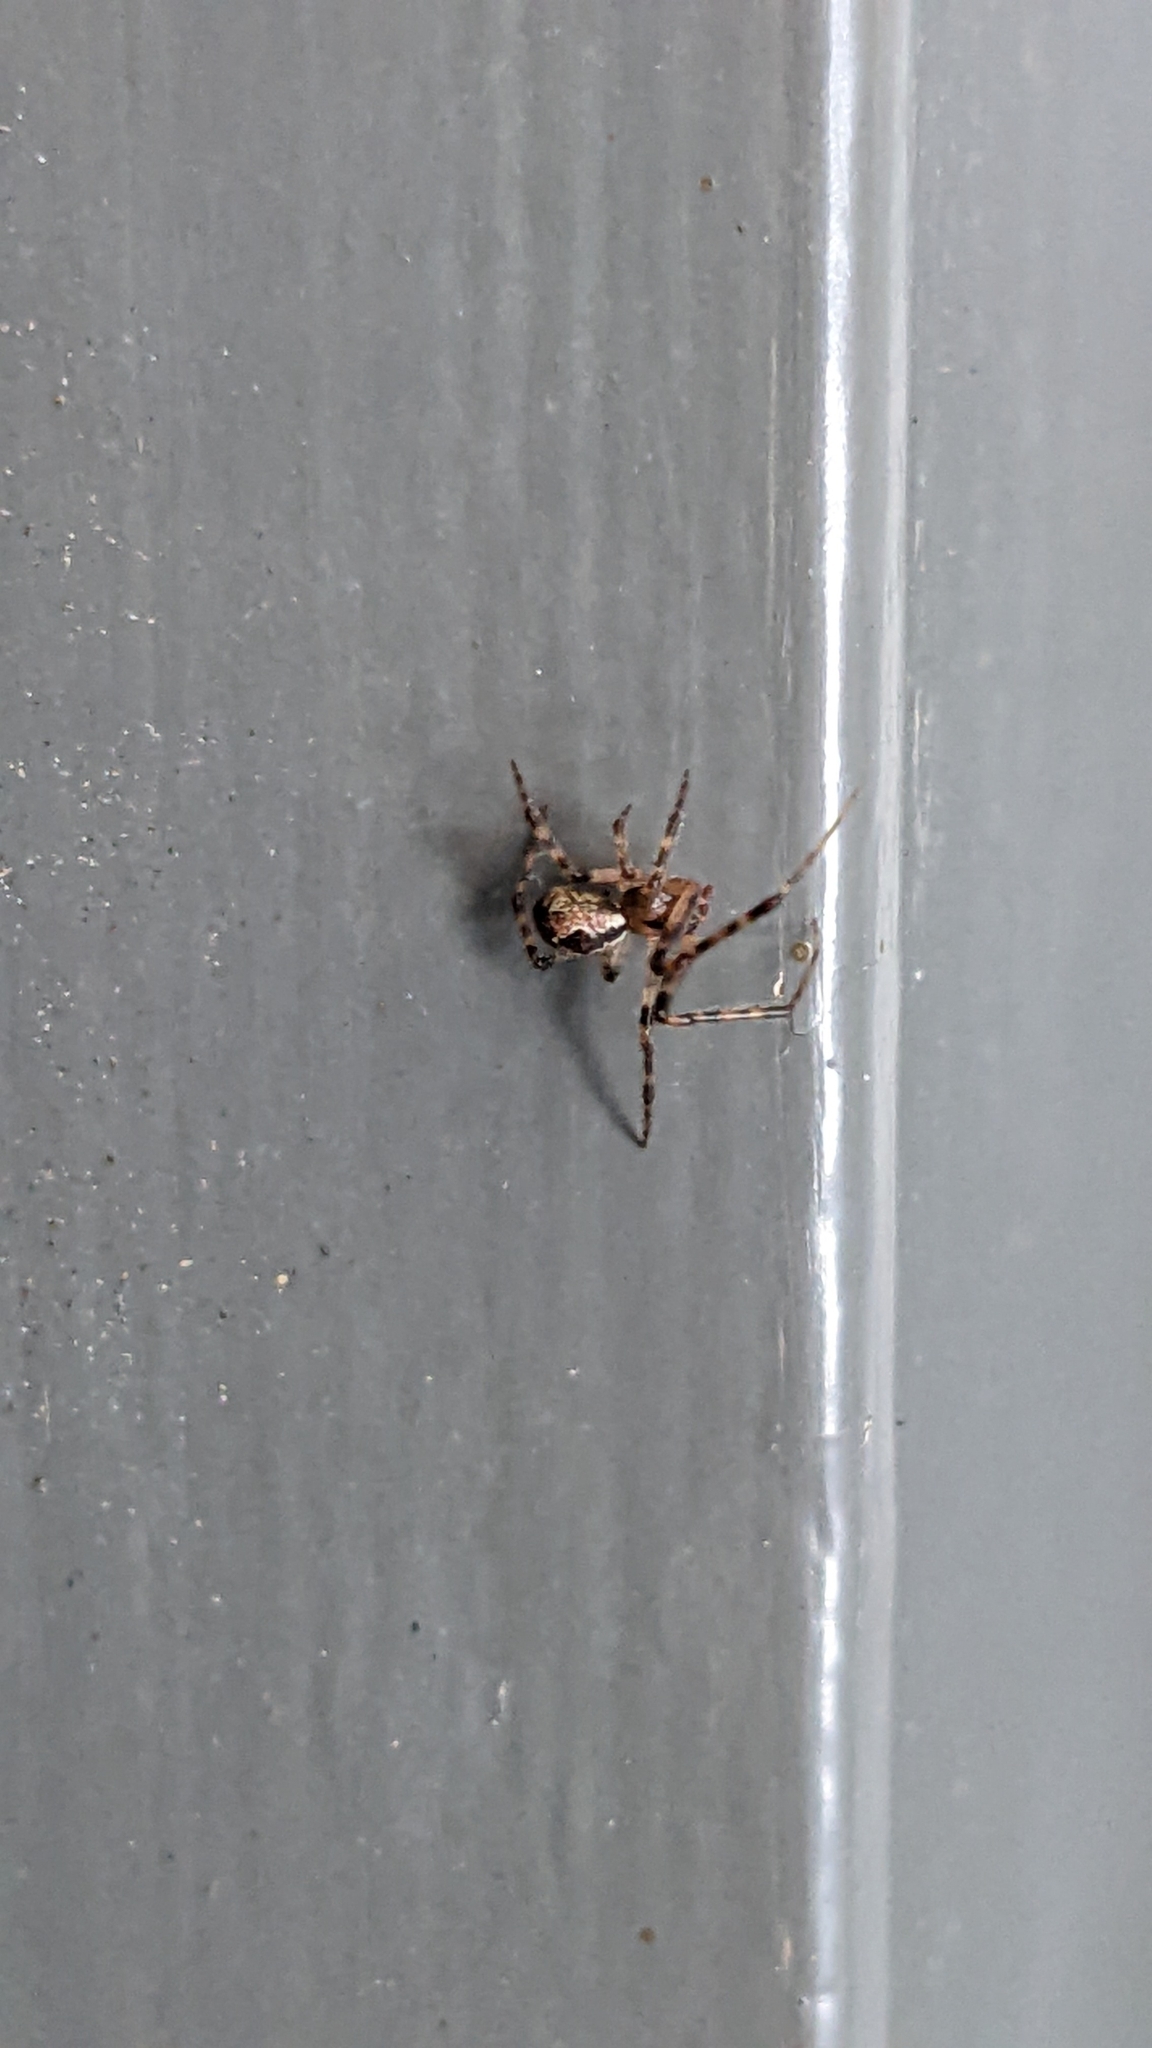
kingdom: Animalia
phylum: Arthropoda
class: Arachnida
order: Araneae
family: Theridiidae
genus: Cryptachaea
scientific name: Cryptachaea veruculata
